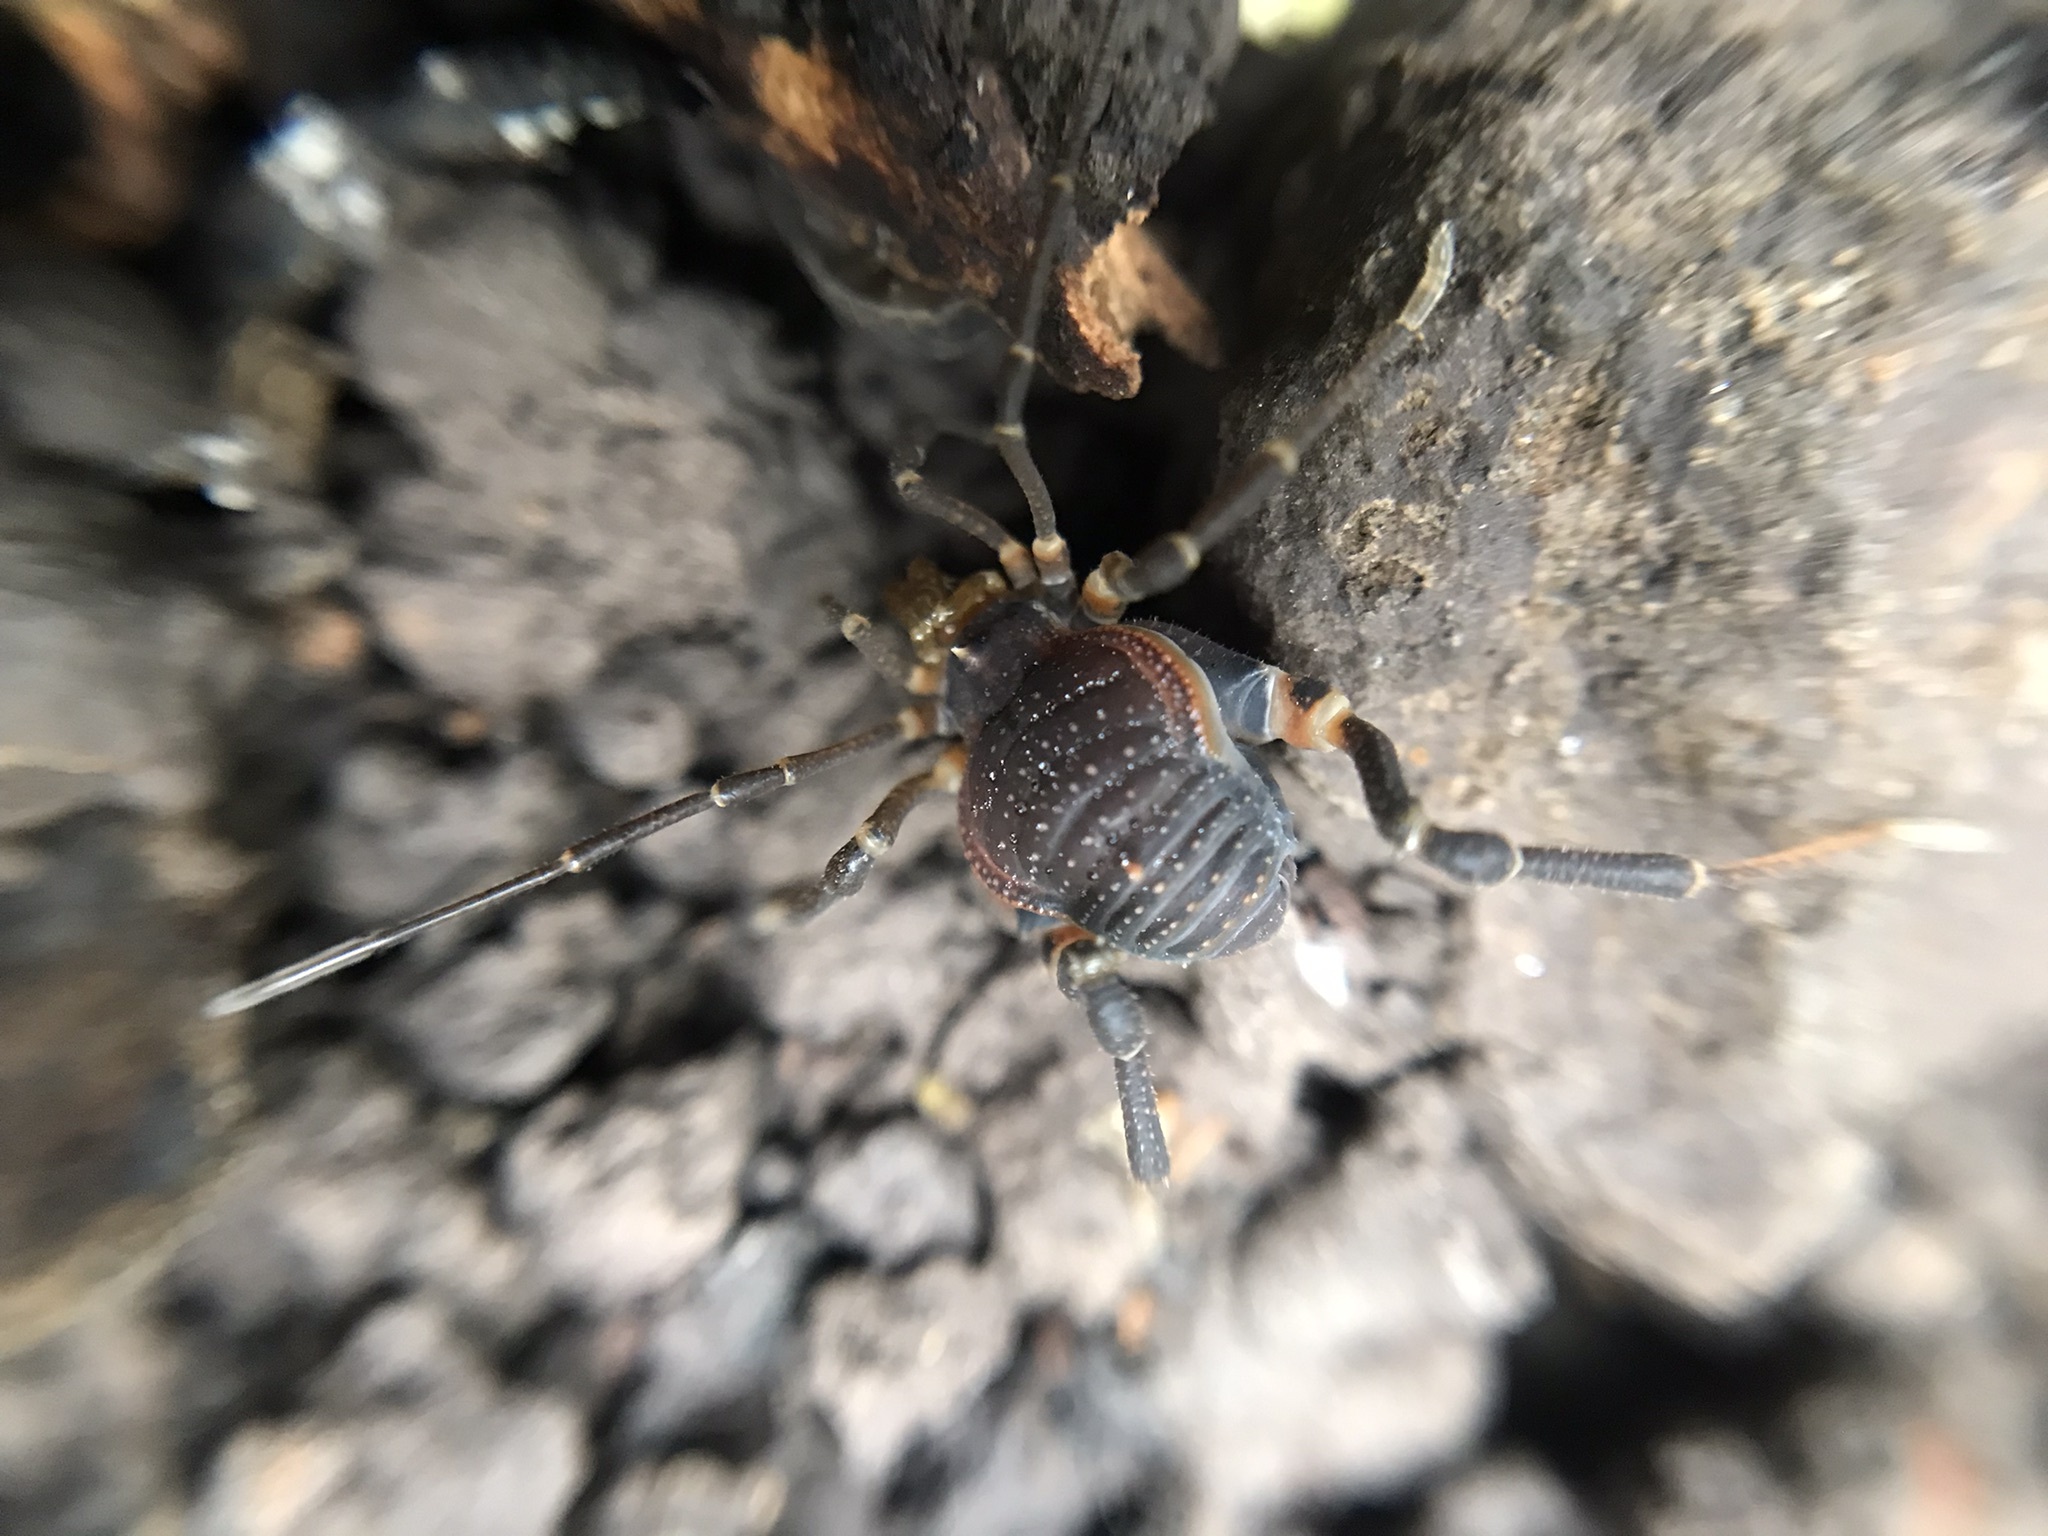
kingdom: Animalia
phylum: Arthropoda
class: Arachnida
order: Opiliones
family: Gonyleptidae
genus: Acanthopachylus
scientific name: Acanthopachylus robustus
